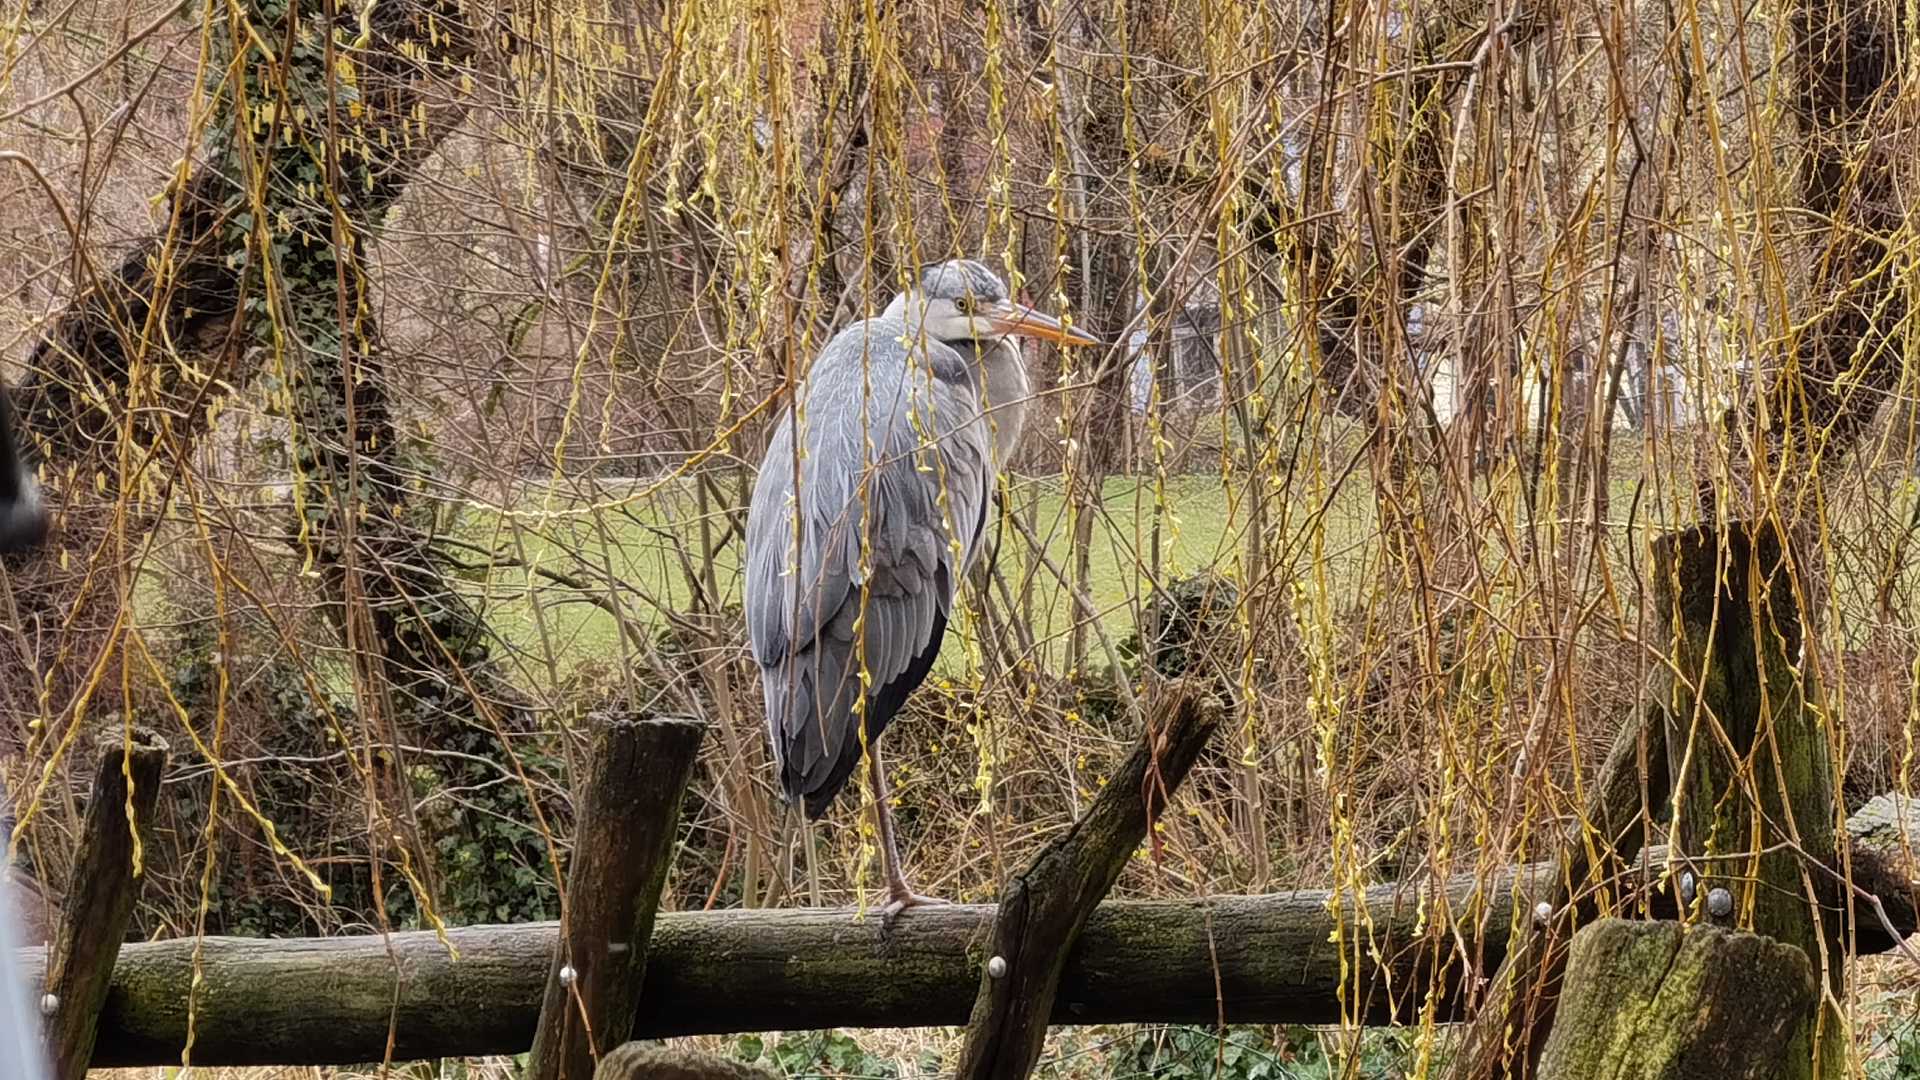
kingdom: Animalia
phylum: Chordata
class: Aves
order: Pelecaniformes
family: Ardeidae
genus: Ardea
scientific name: Ardea cinerea
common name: Grey heron
